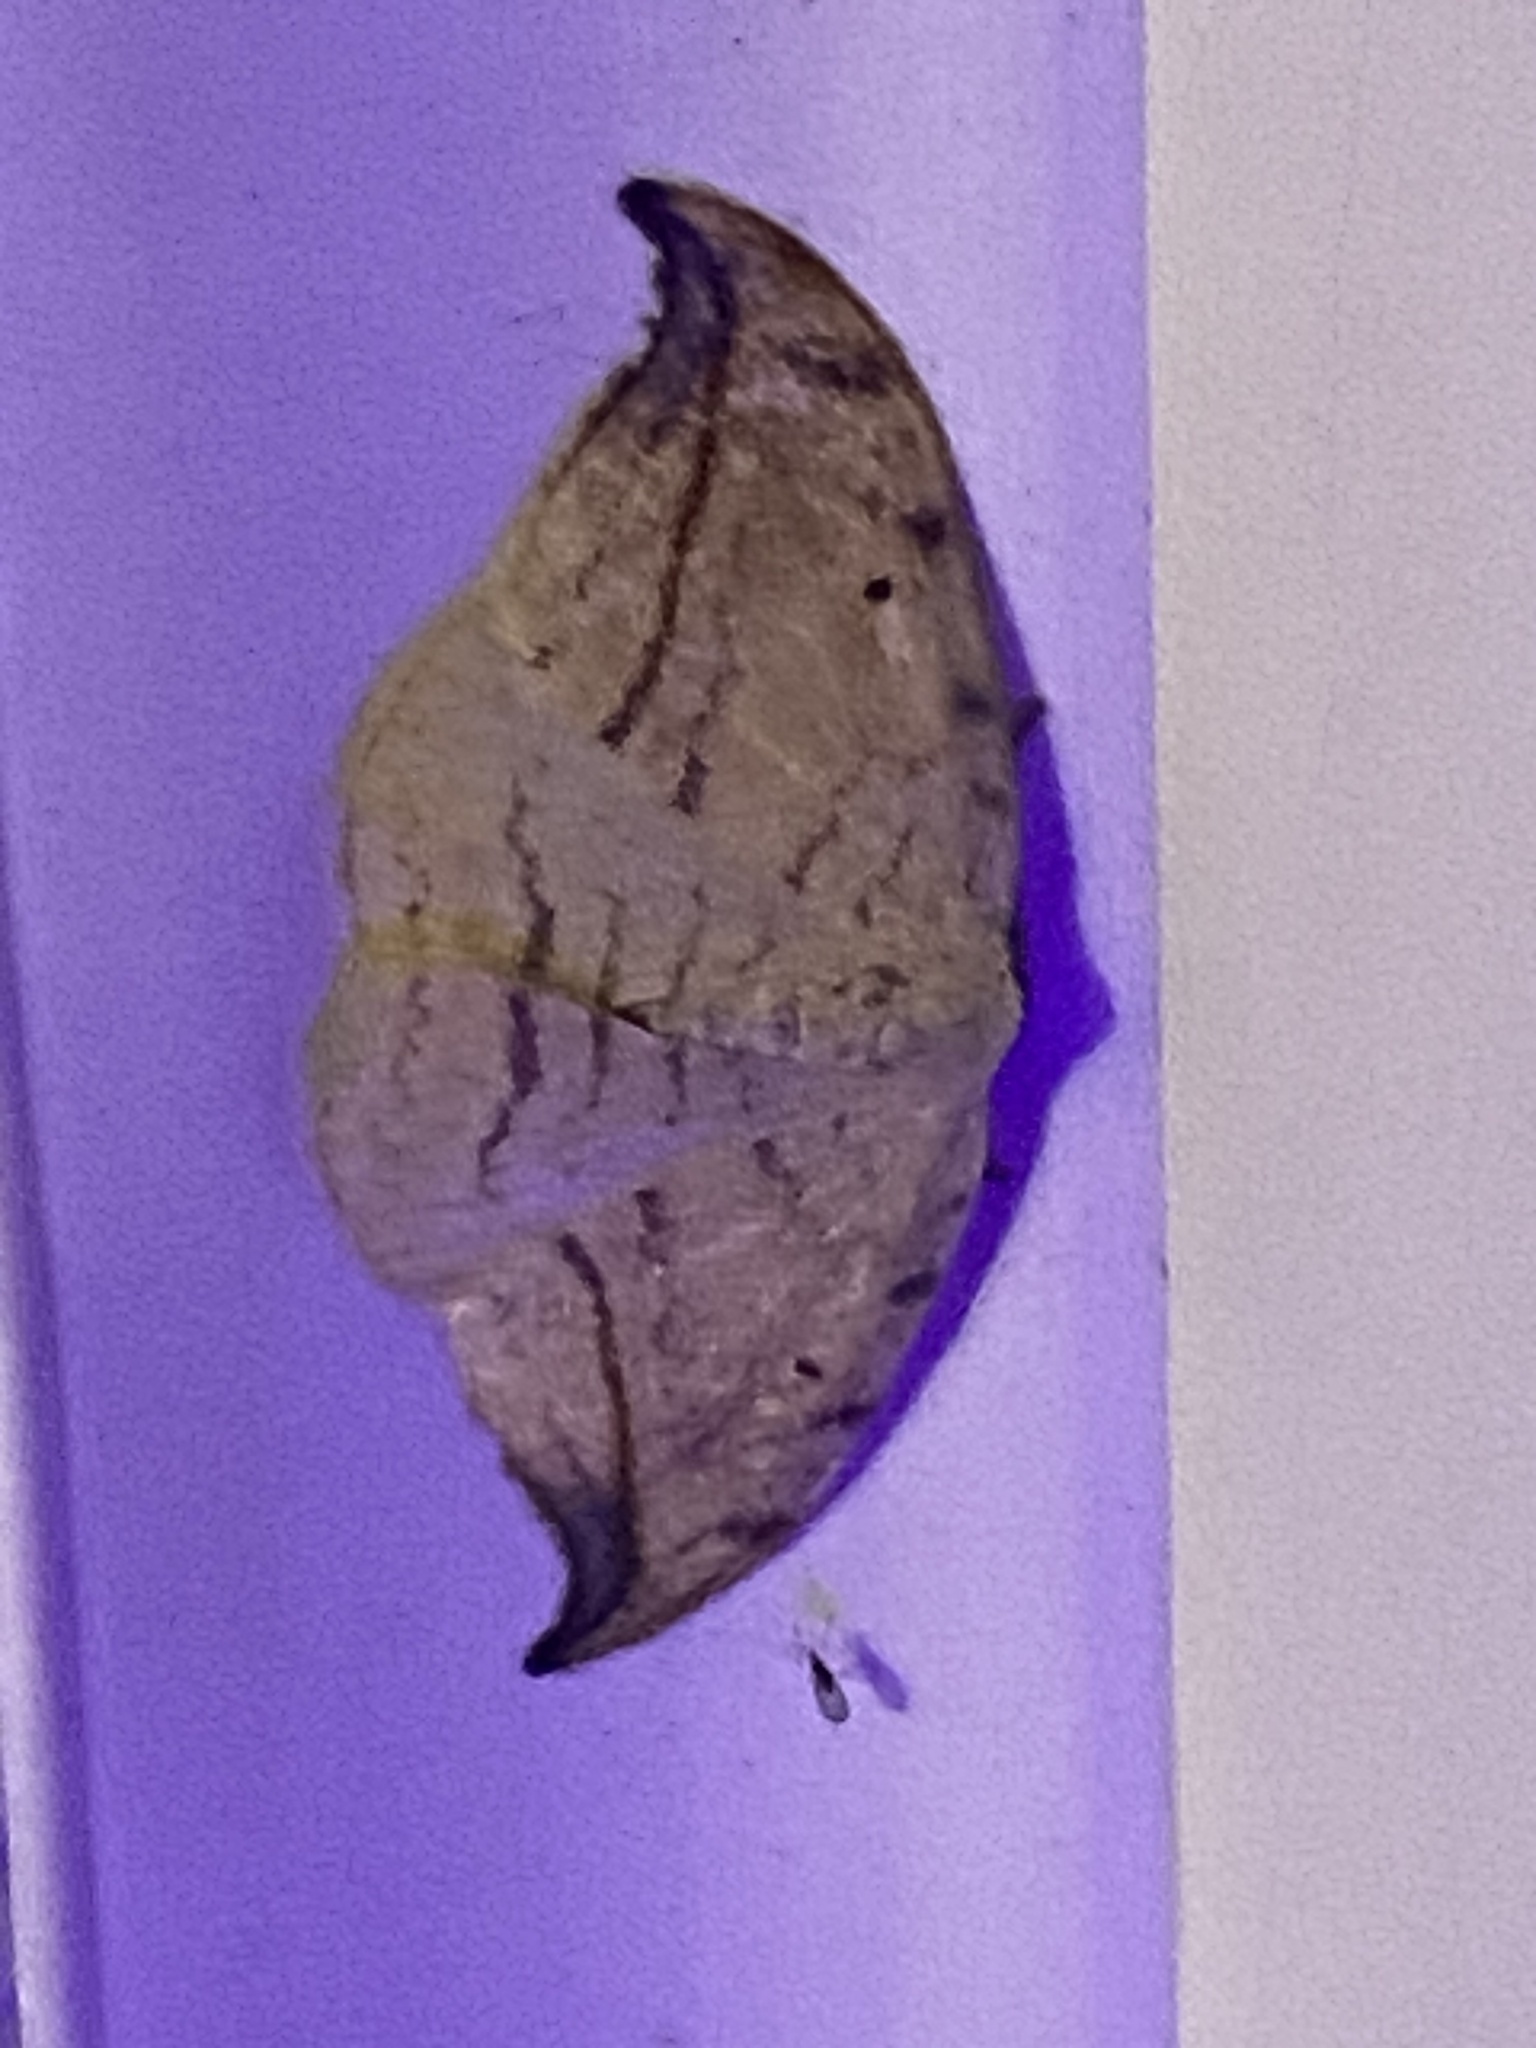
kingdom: Animalia
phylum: Arthropoda
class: Insecta
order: Lepidoptera
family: Drepanidae
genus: Drepana
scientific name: Drepana arcuata
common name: Arched hooktip moth
